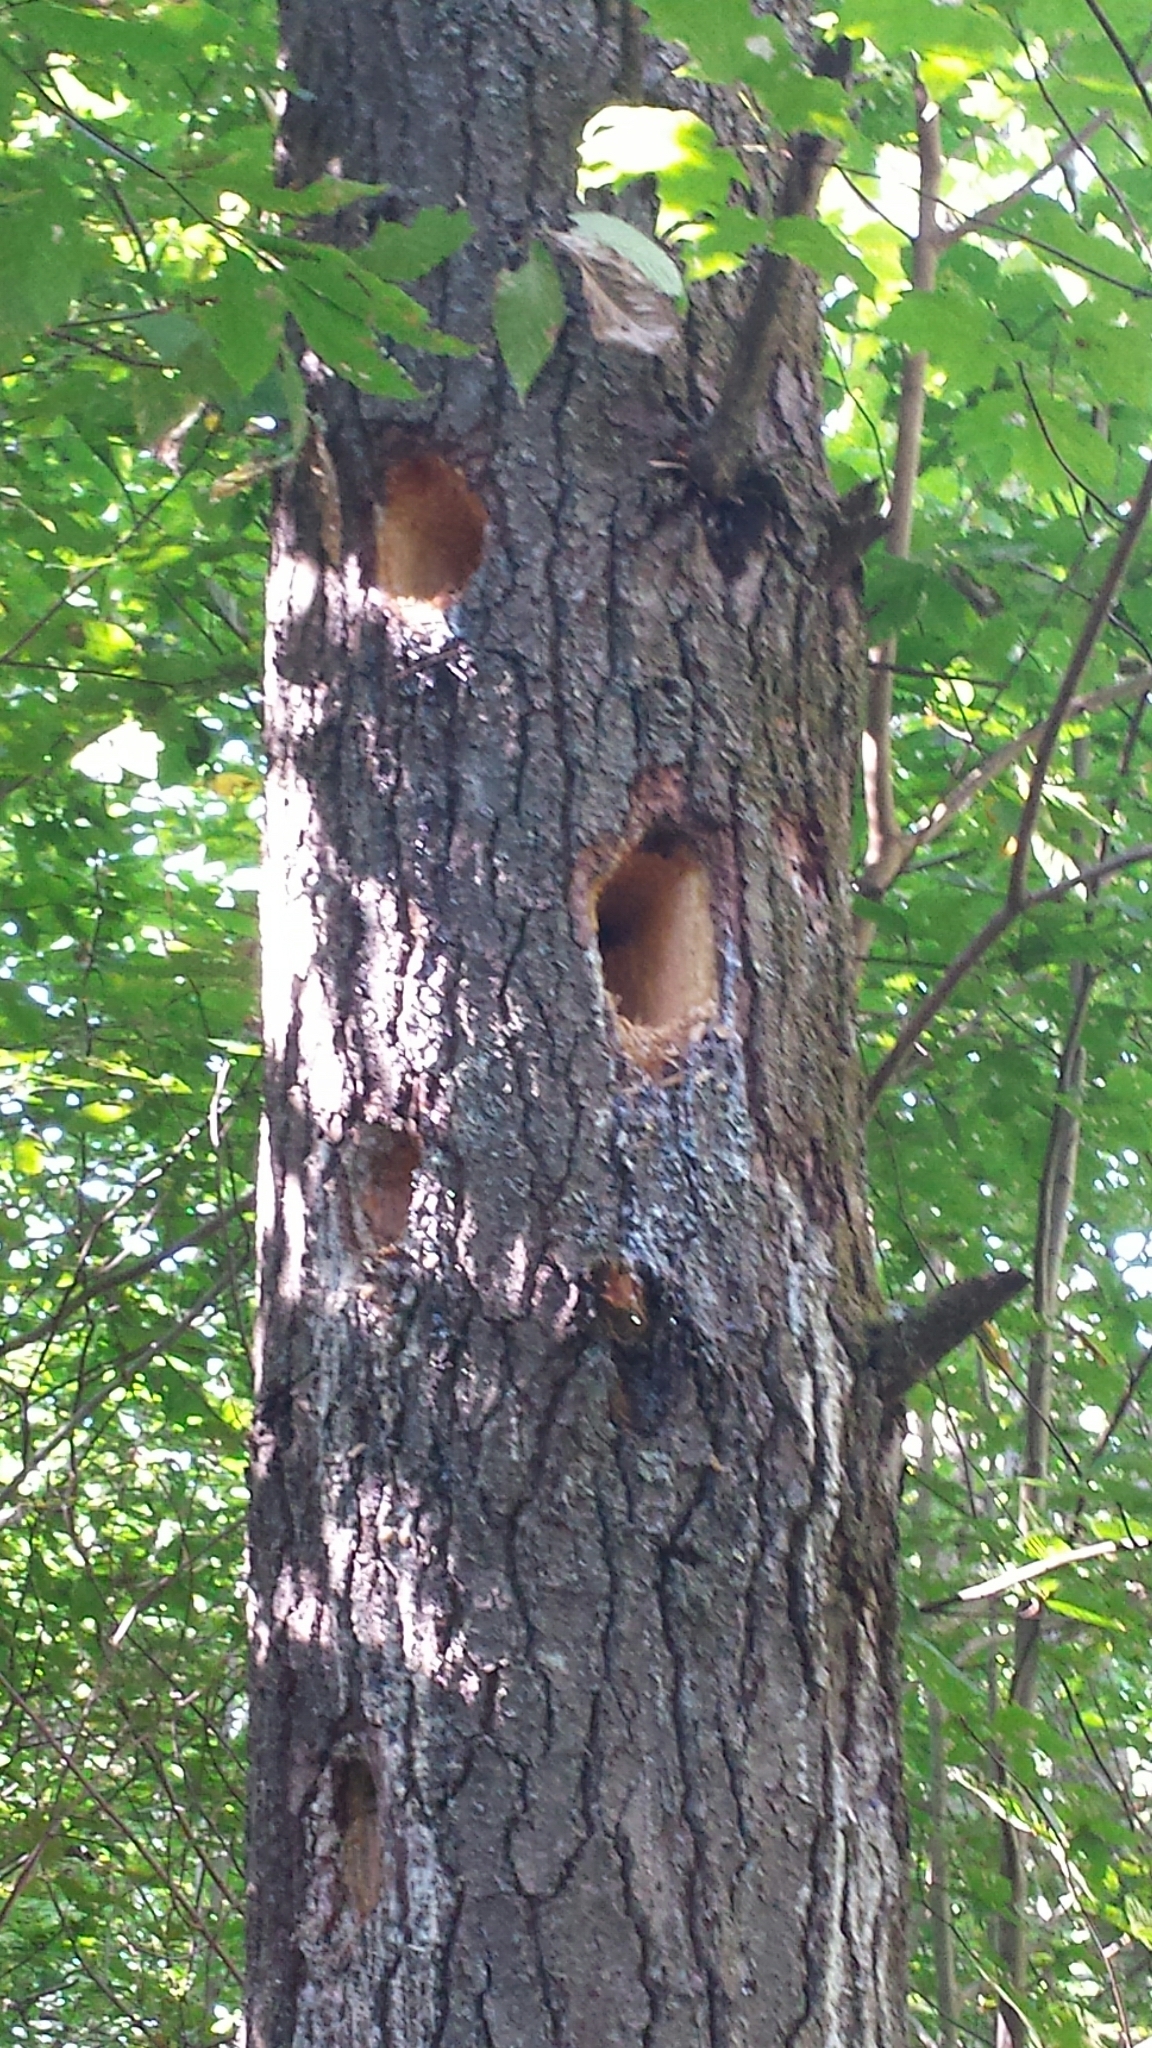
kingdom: Animalia
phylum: Chordata
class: Aves
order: Piciformes
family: Picidae
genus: Dryocopus
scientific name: Dryocopus pileatus
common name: Pileated woodpecker
